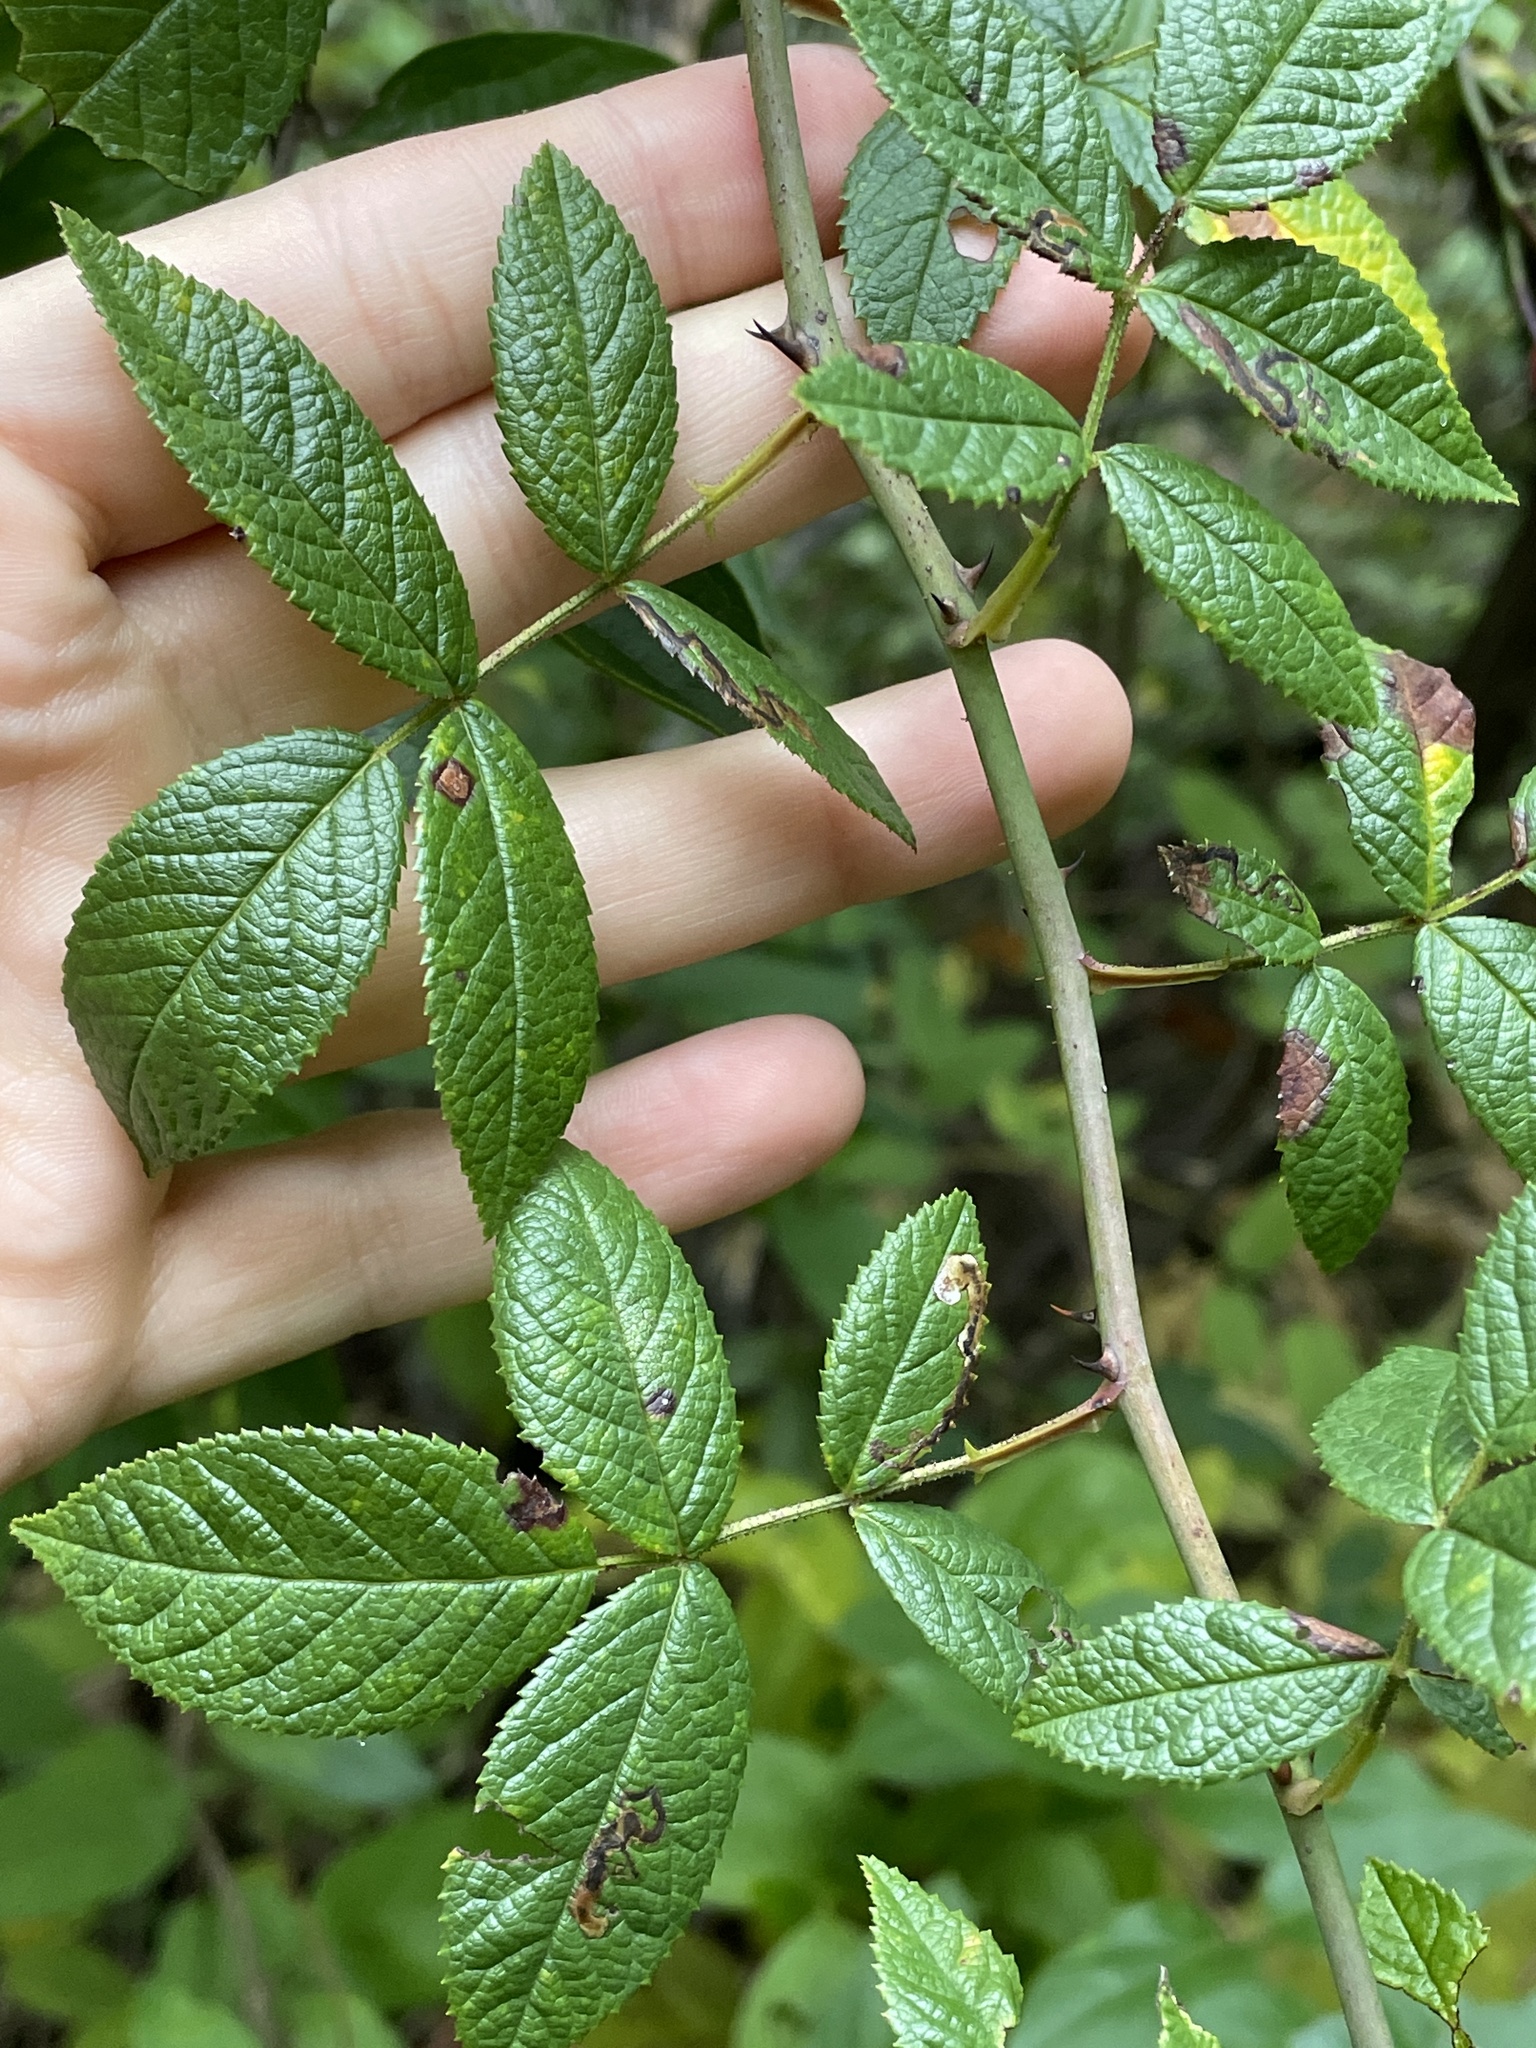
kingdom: Plantae
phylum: Tracheophyta
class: Magnoliopsida
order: Rosales
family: Rosaceae
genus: Rosa
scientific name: Rosa setigera
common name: Prairie rose
